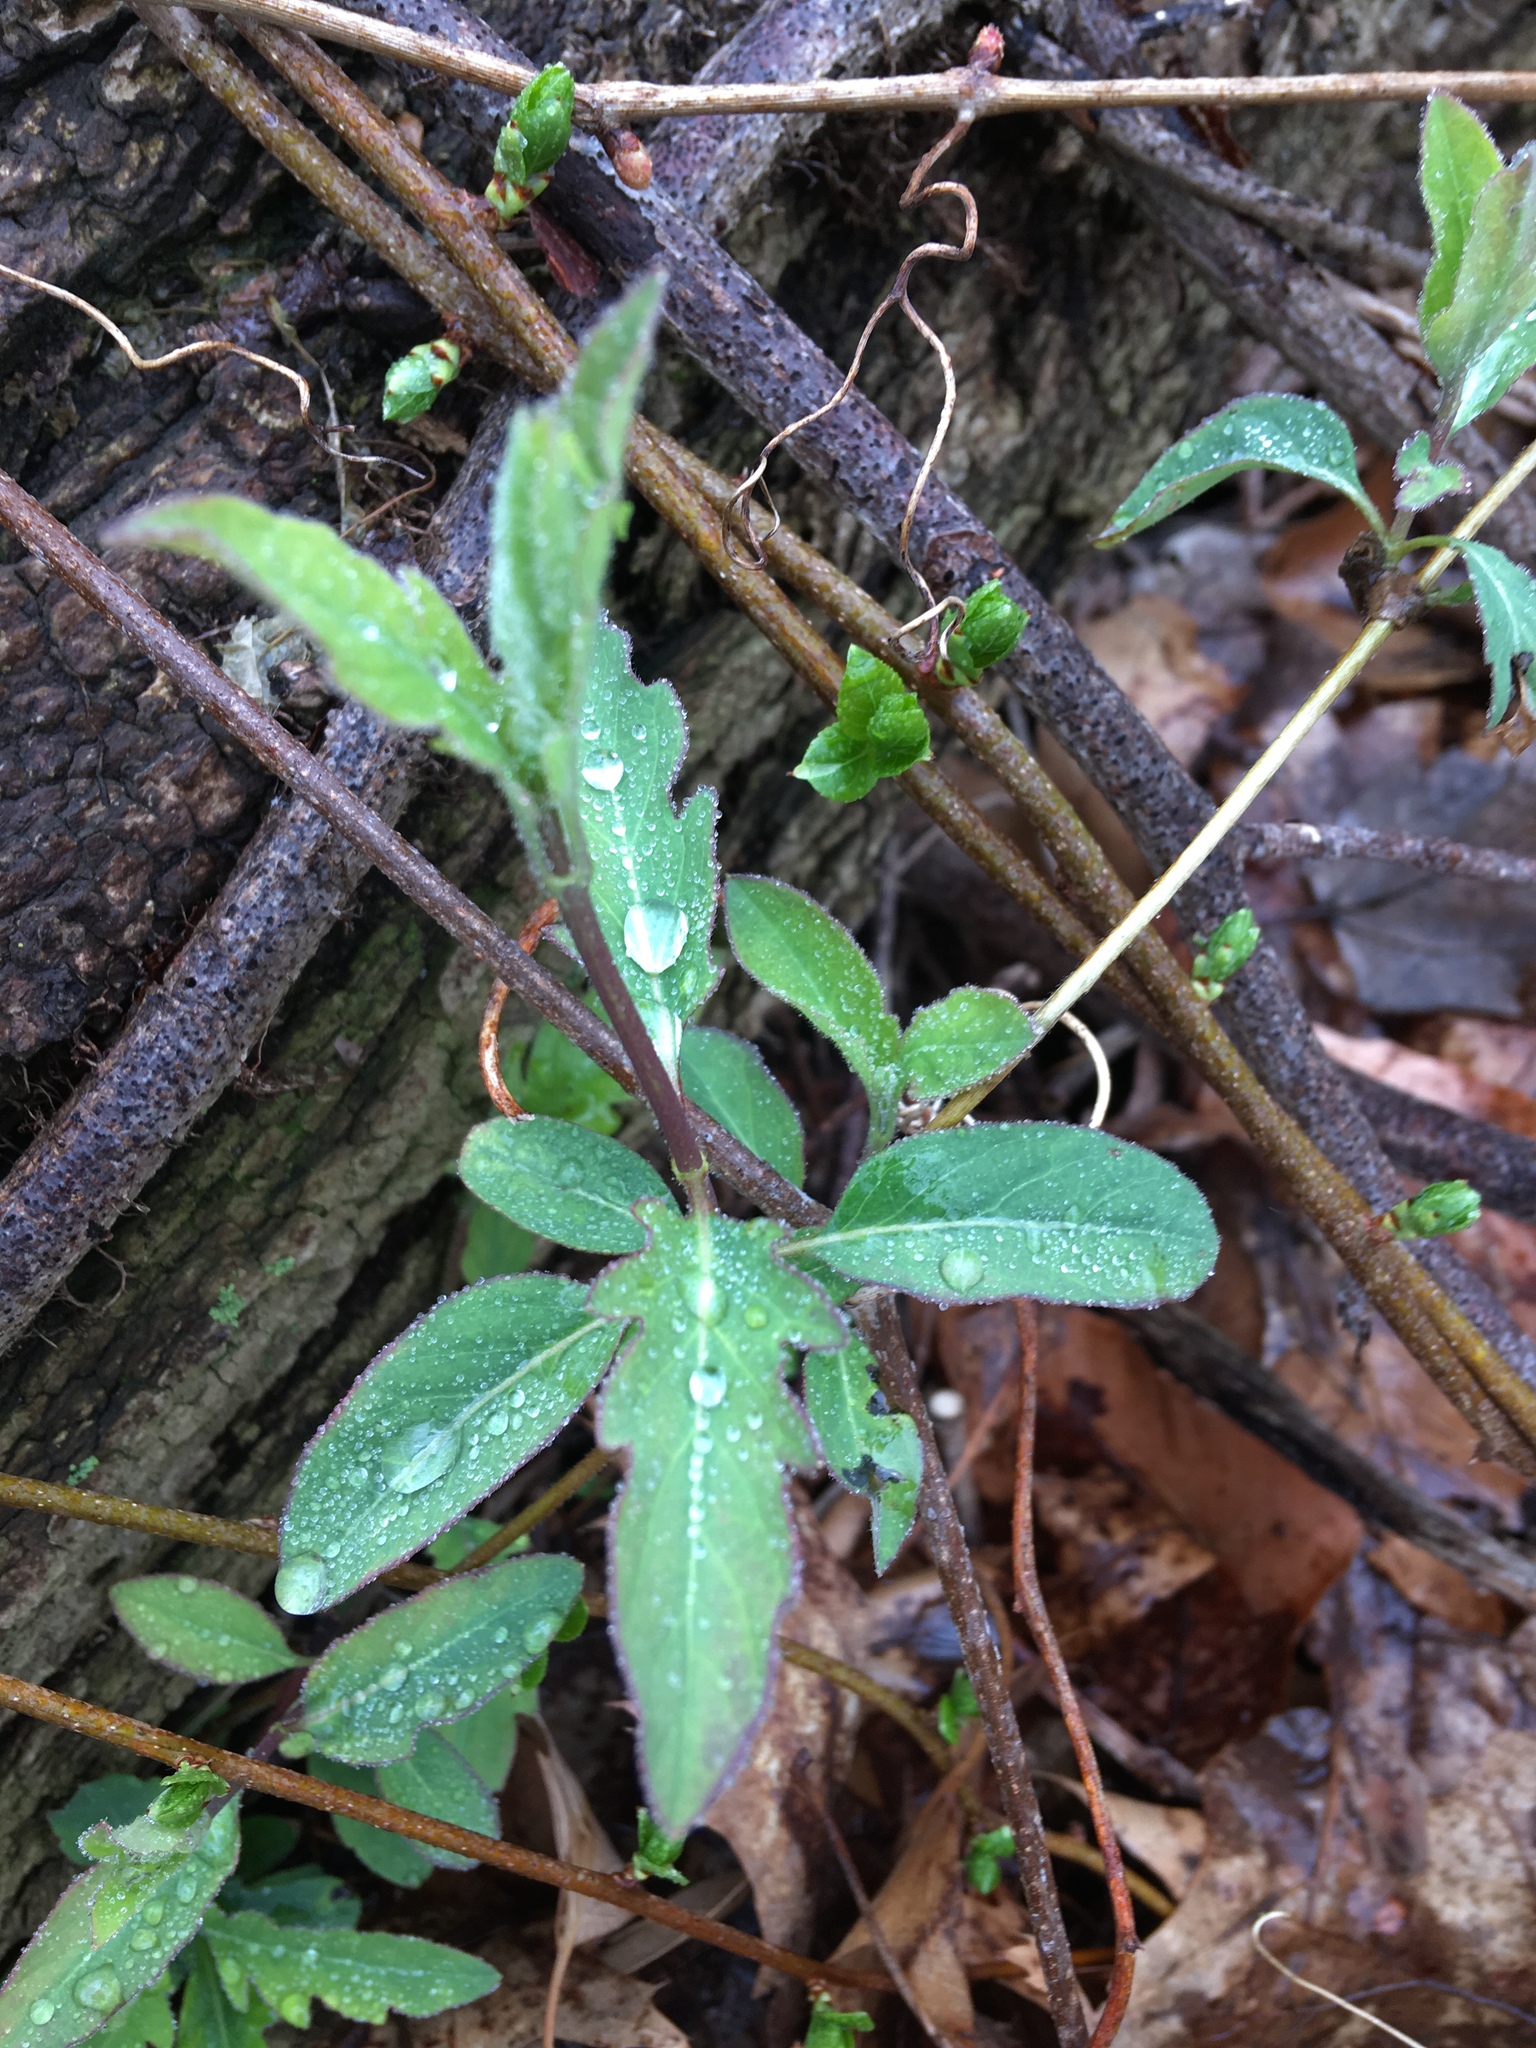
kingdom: Plantae
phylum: Tracheophyta
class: Magnoliopsida
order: Dipsacales
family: Caprifoliaceae
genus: Lonicera
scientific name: Lonicera japonica
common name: Japanese honeysuckle
